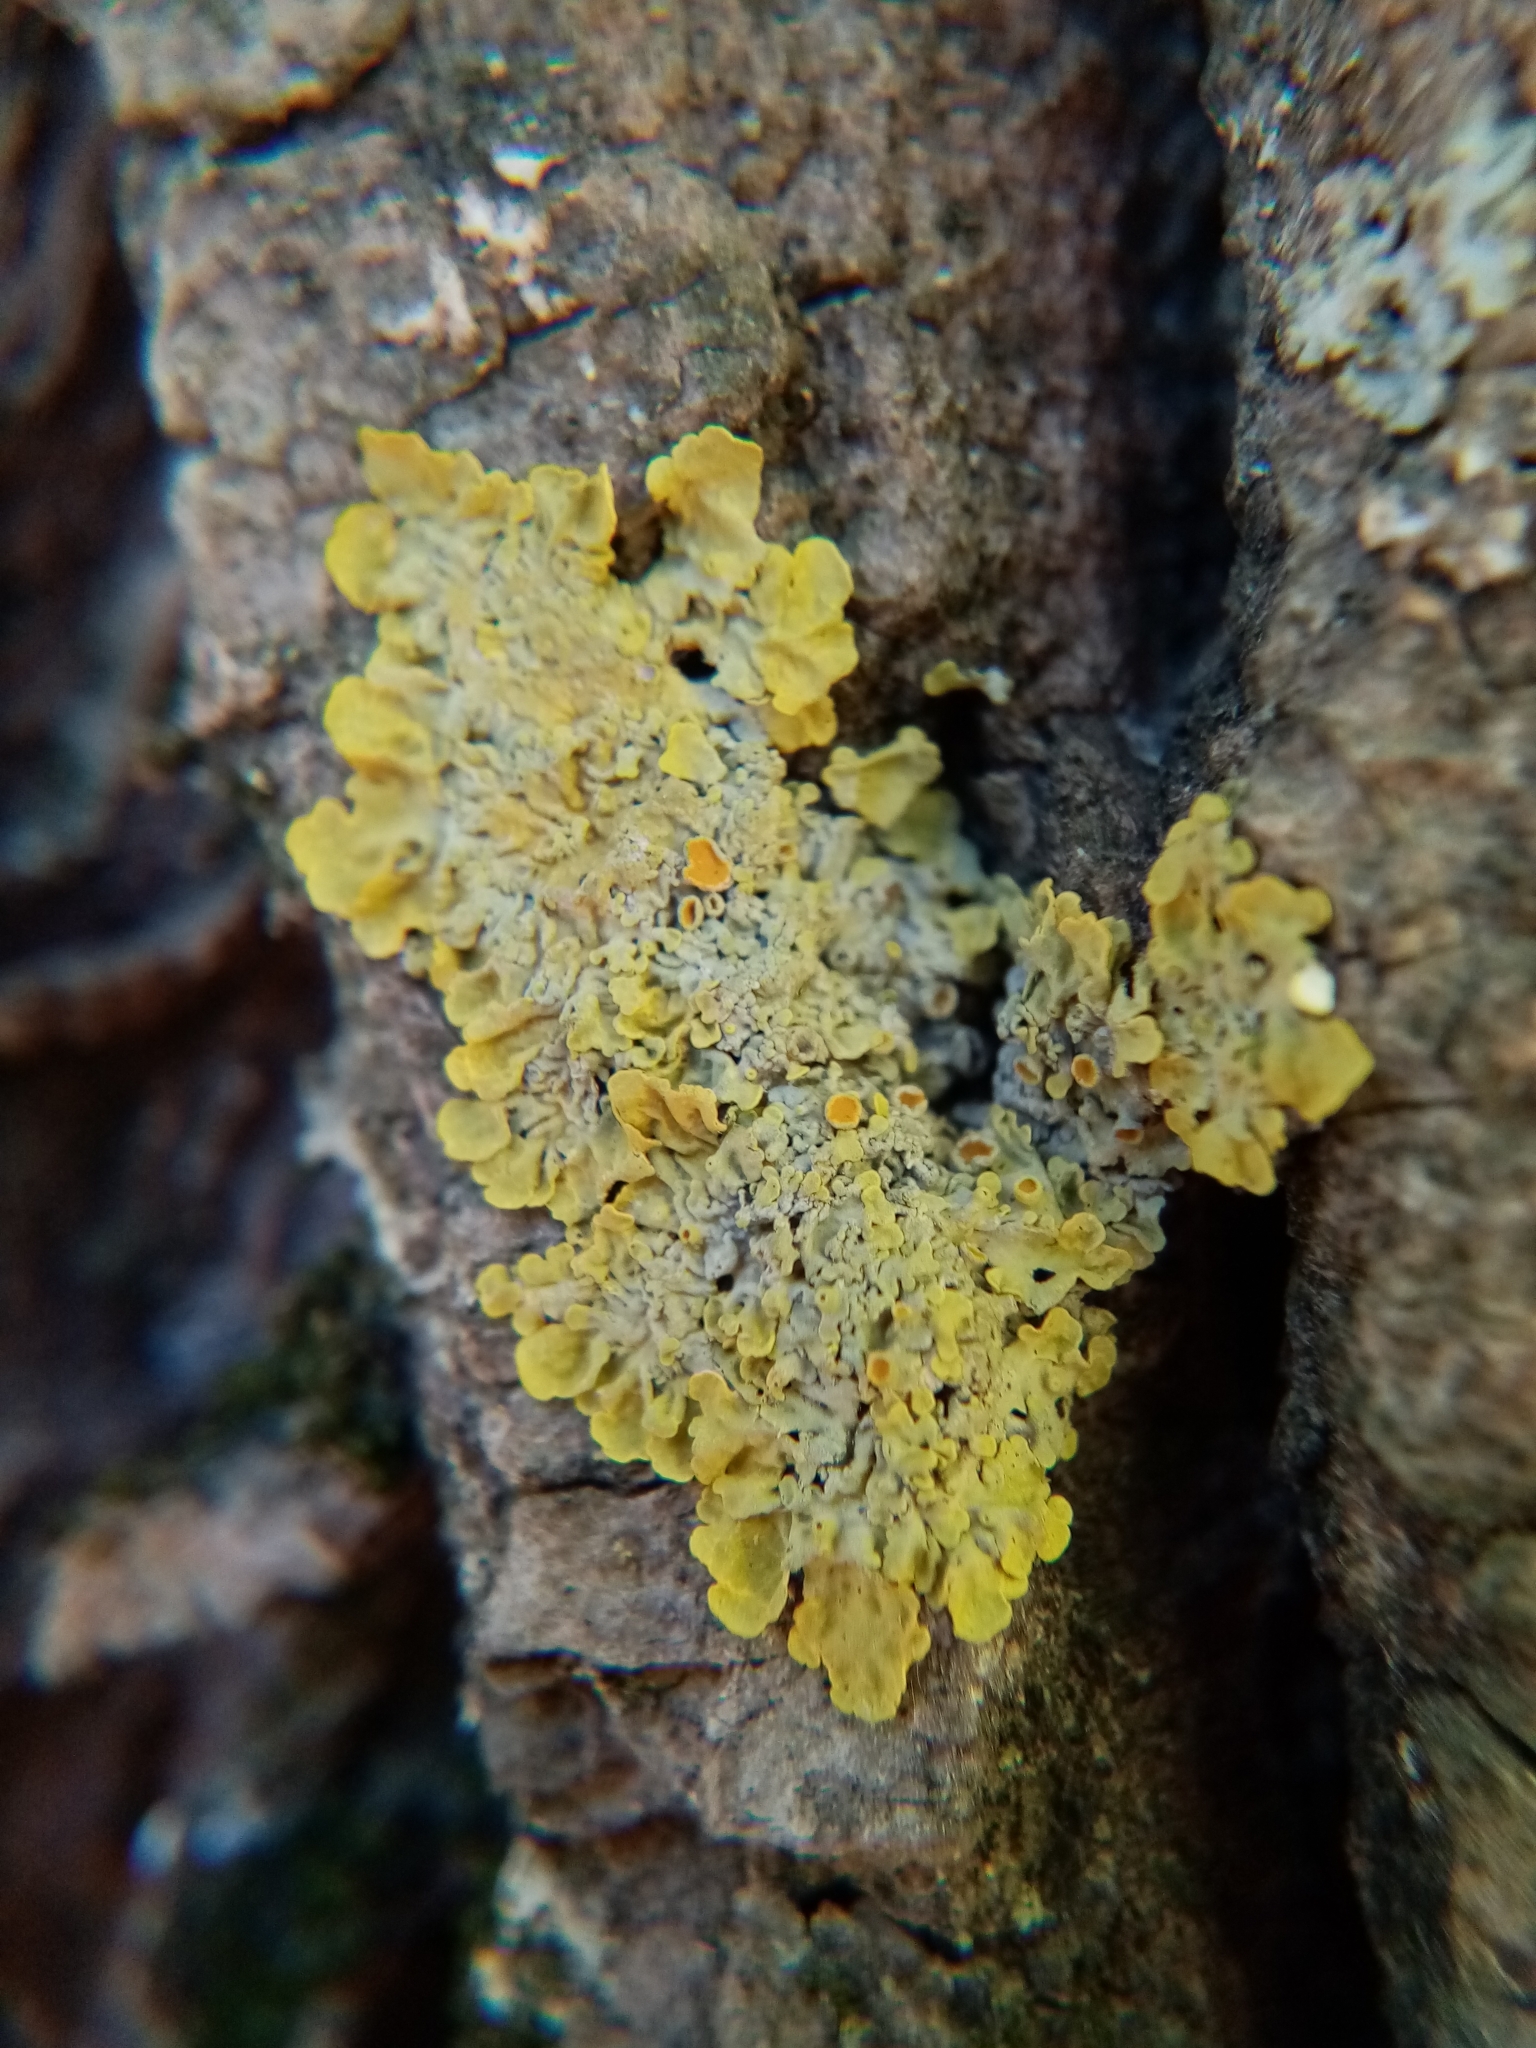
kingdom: Fungi
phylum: Ascomycota
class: Lecanoromycetes
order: Teloschistales
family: Teloschistaceae
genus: Xanthoria
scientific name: Xanthoria parietina
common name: Common orange lichen
